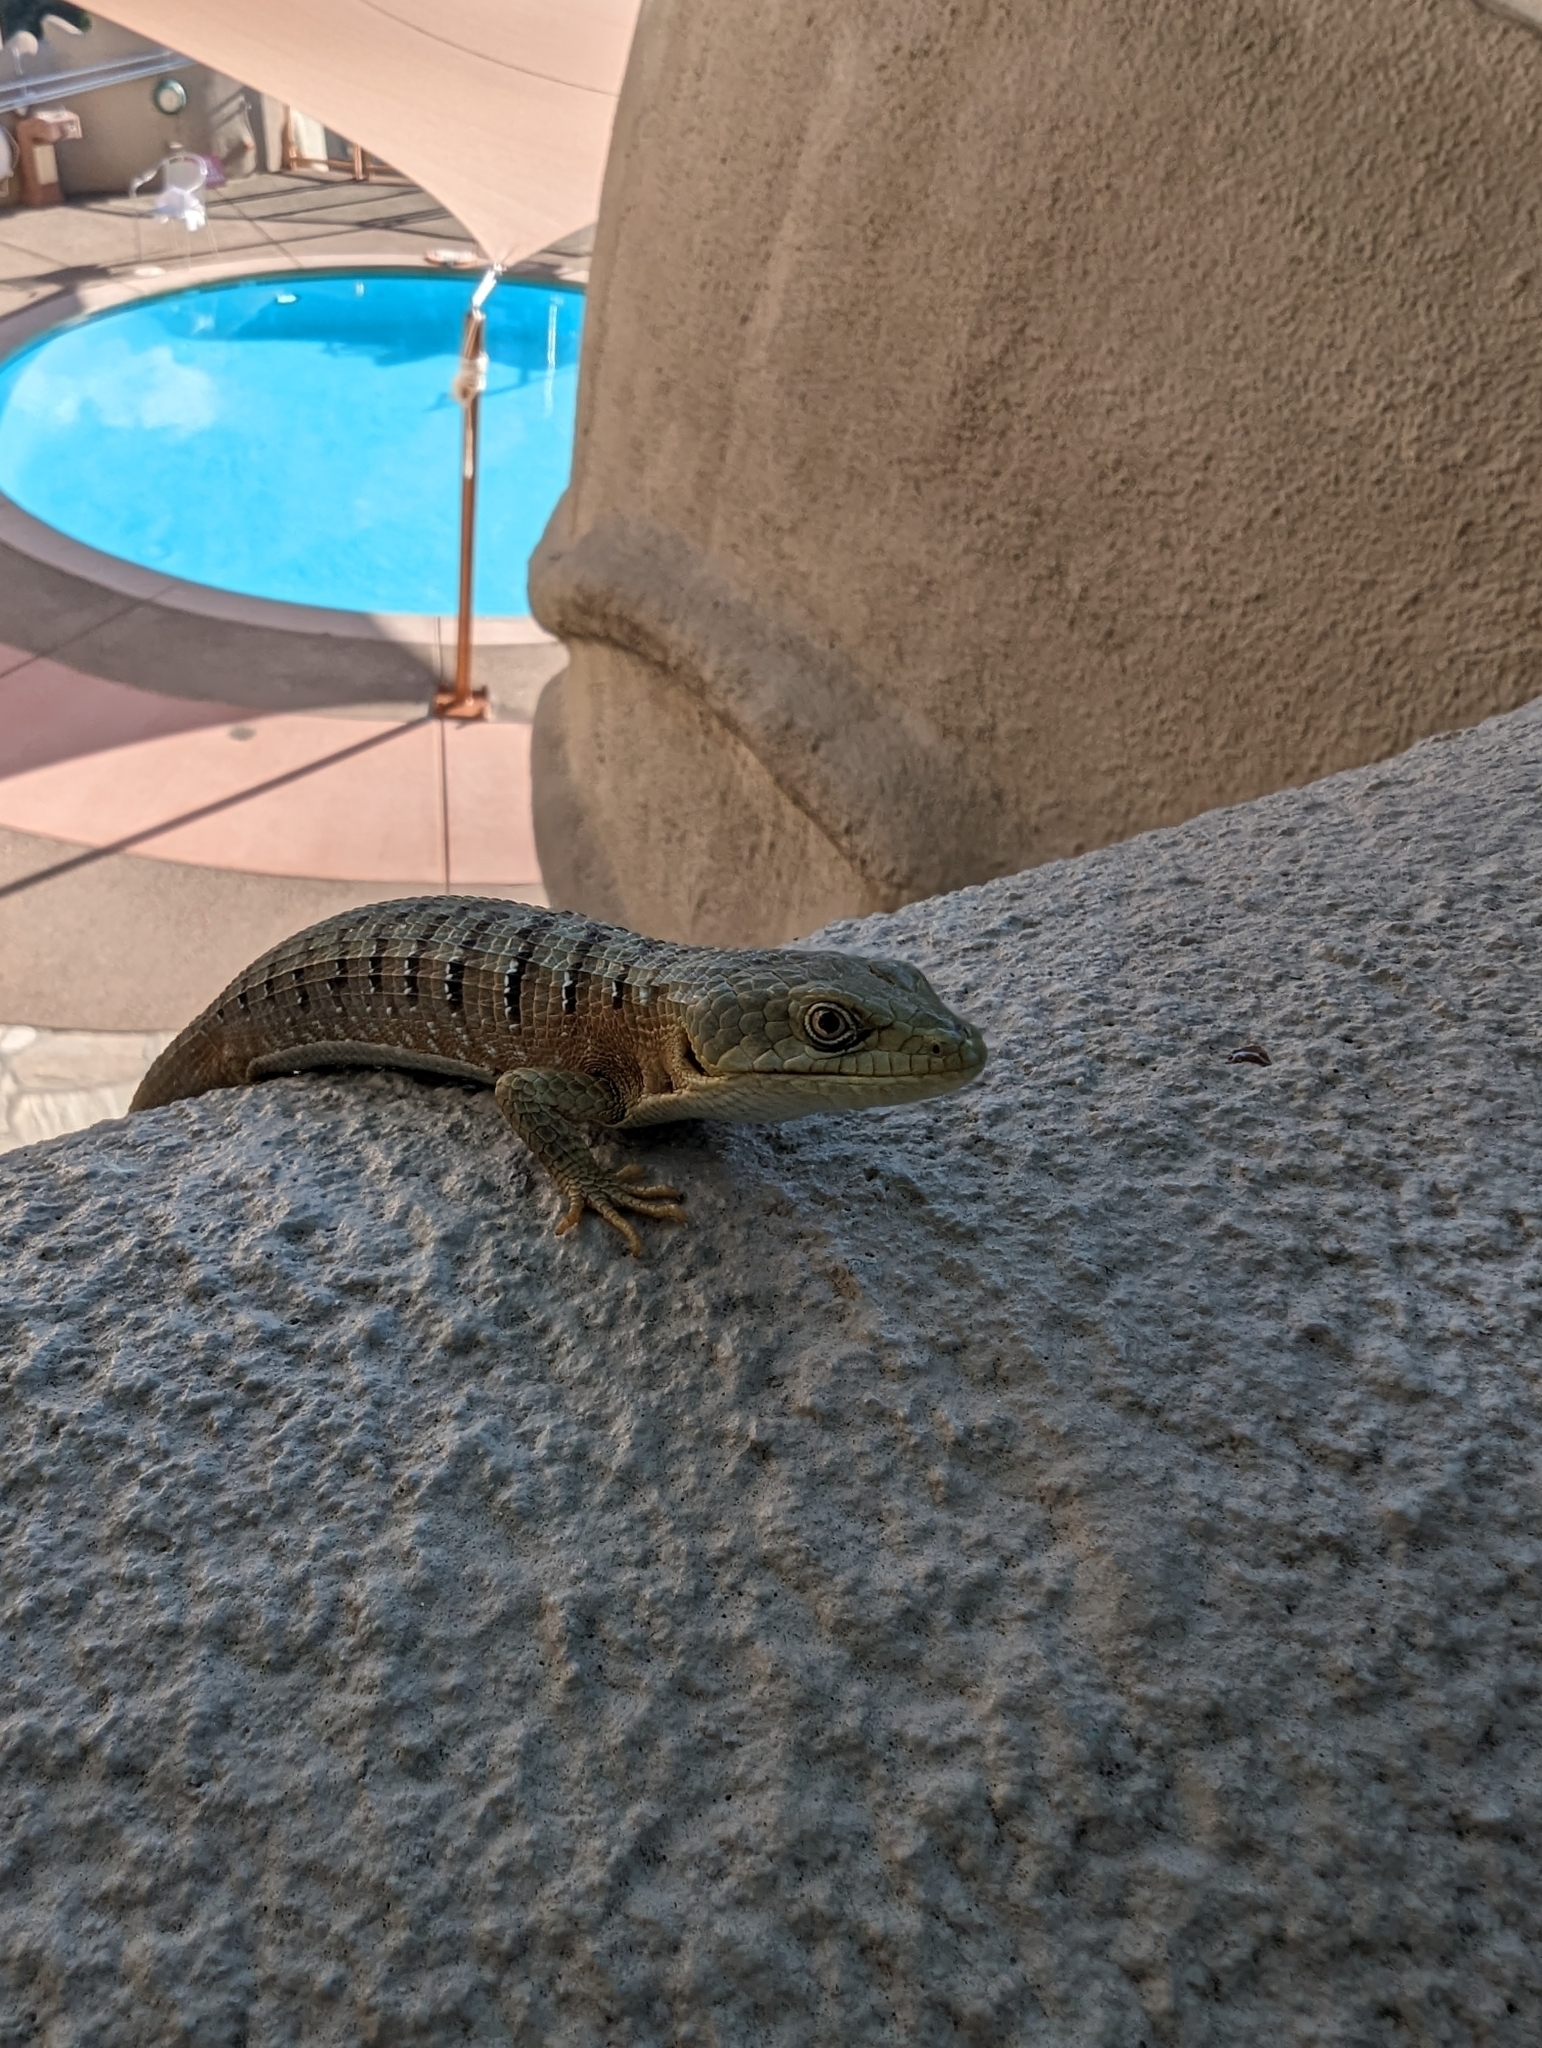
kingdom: Animalia
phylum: Chordata
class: Squamata
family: Anguidae
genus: Elgaria
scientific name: Elgaria multicarinata
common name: Southern alligator lizard
